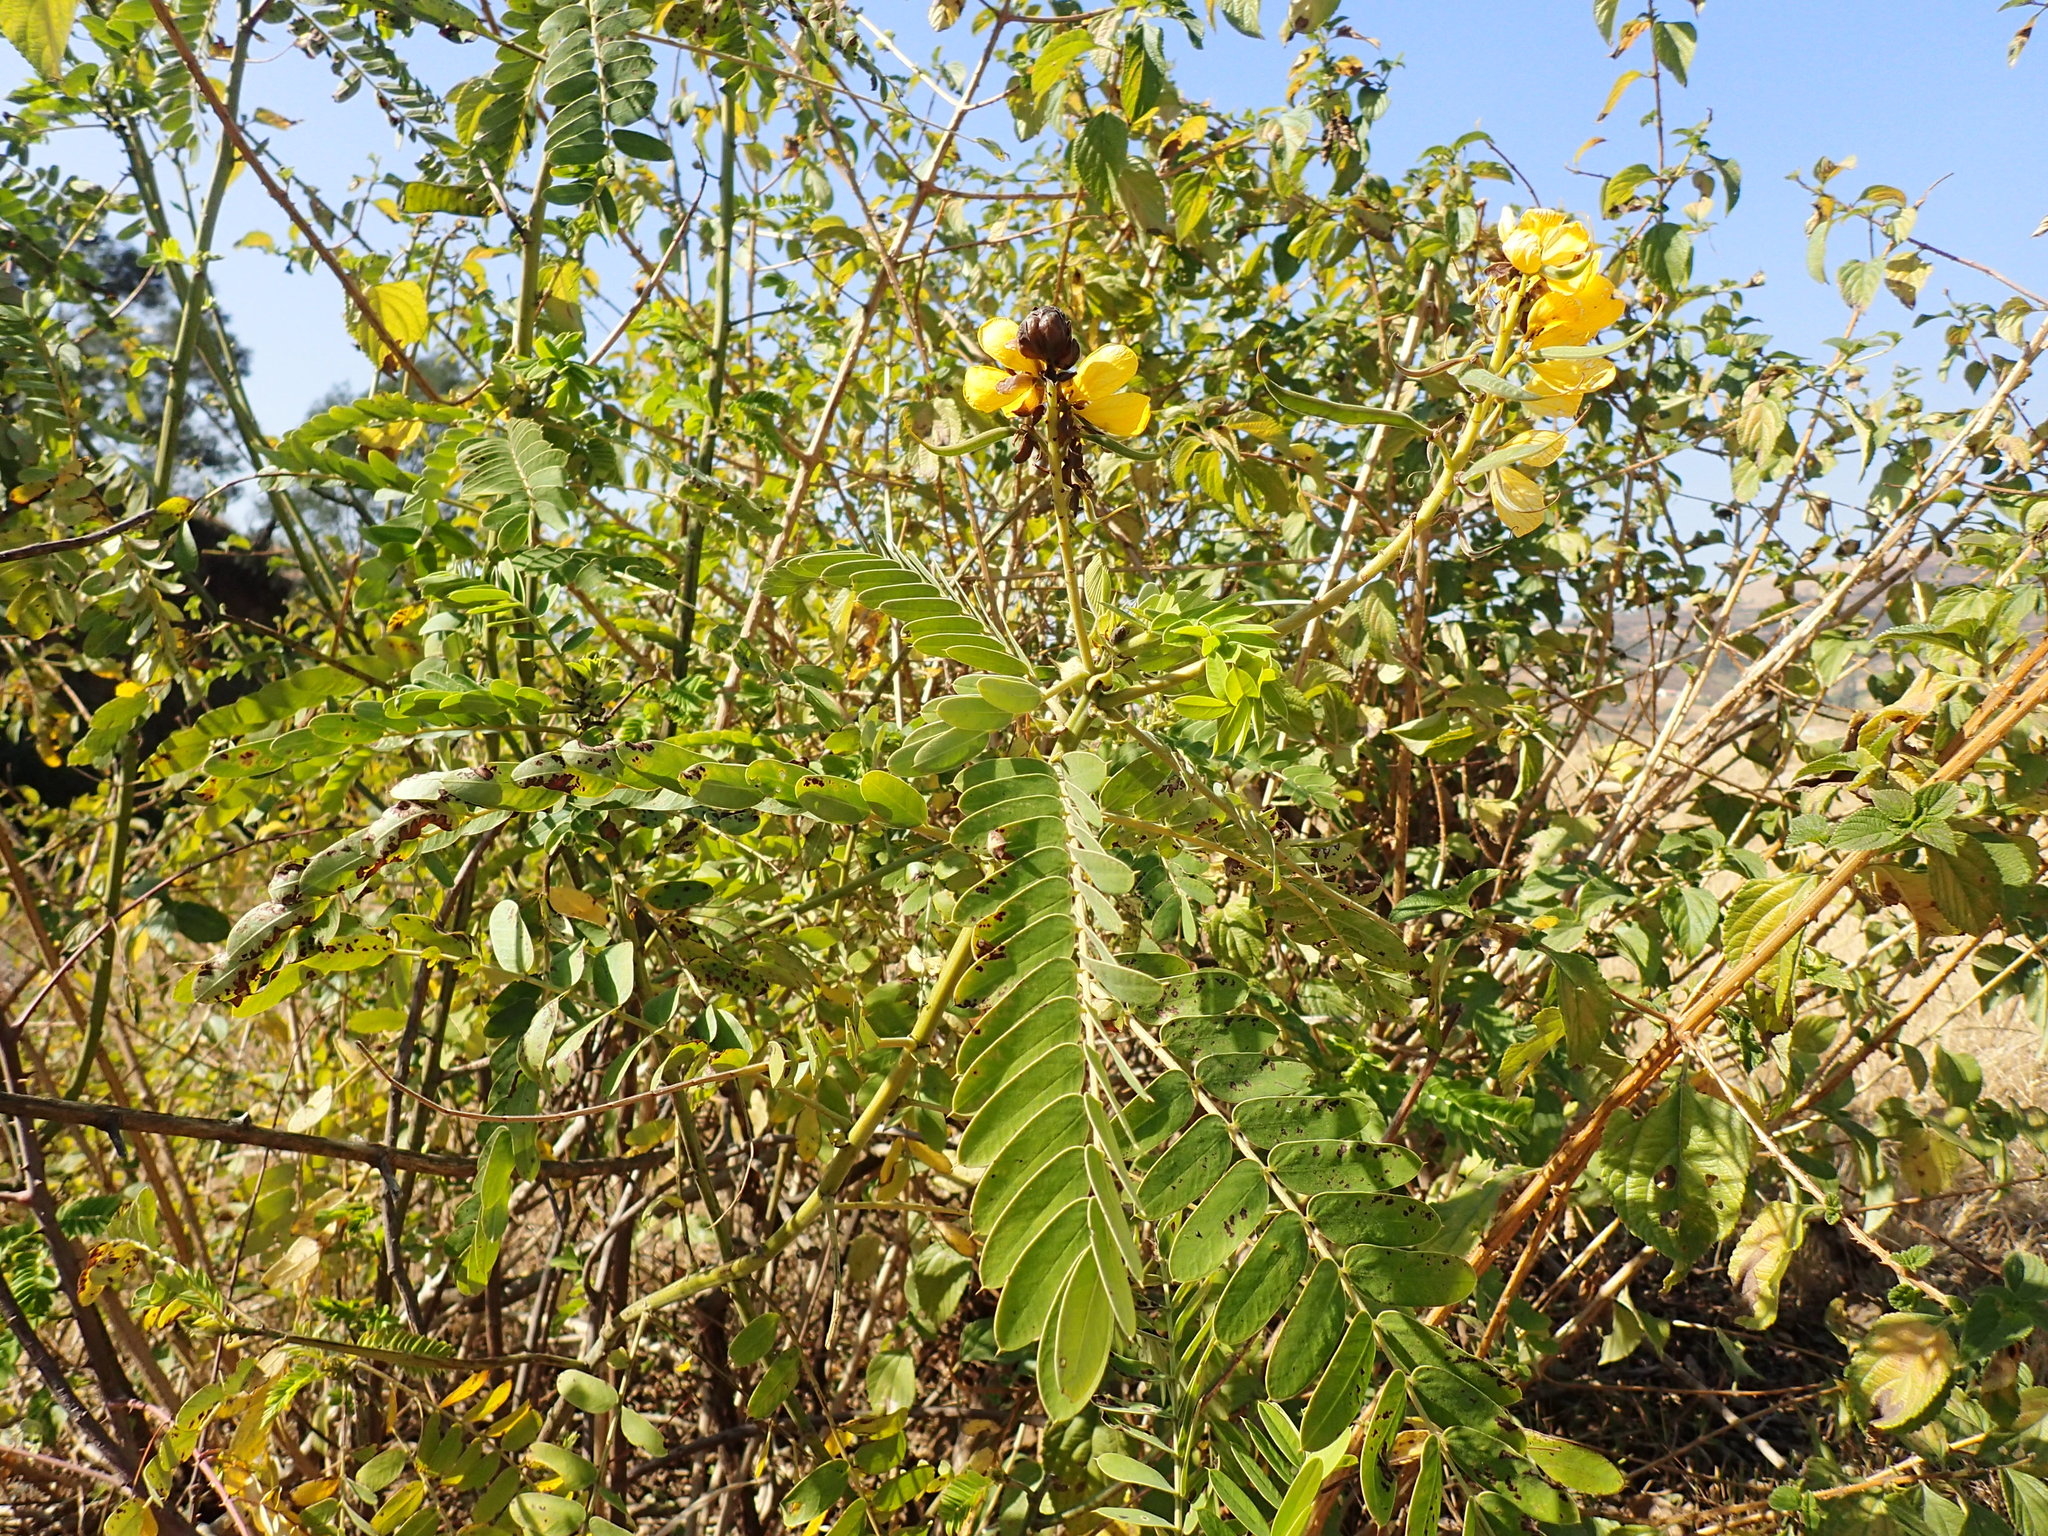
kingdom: Plantae
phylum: Tracheophyta
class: Magnoliopsida
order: Fabales
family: Fabaceae
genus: Senna
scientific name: Senna didymobotrya
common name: African senna
